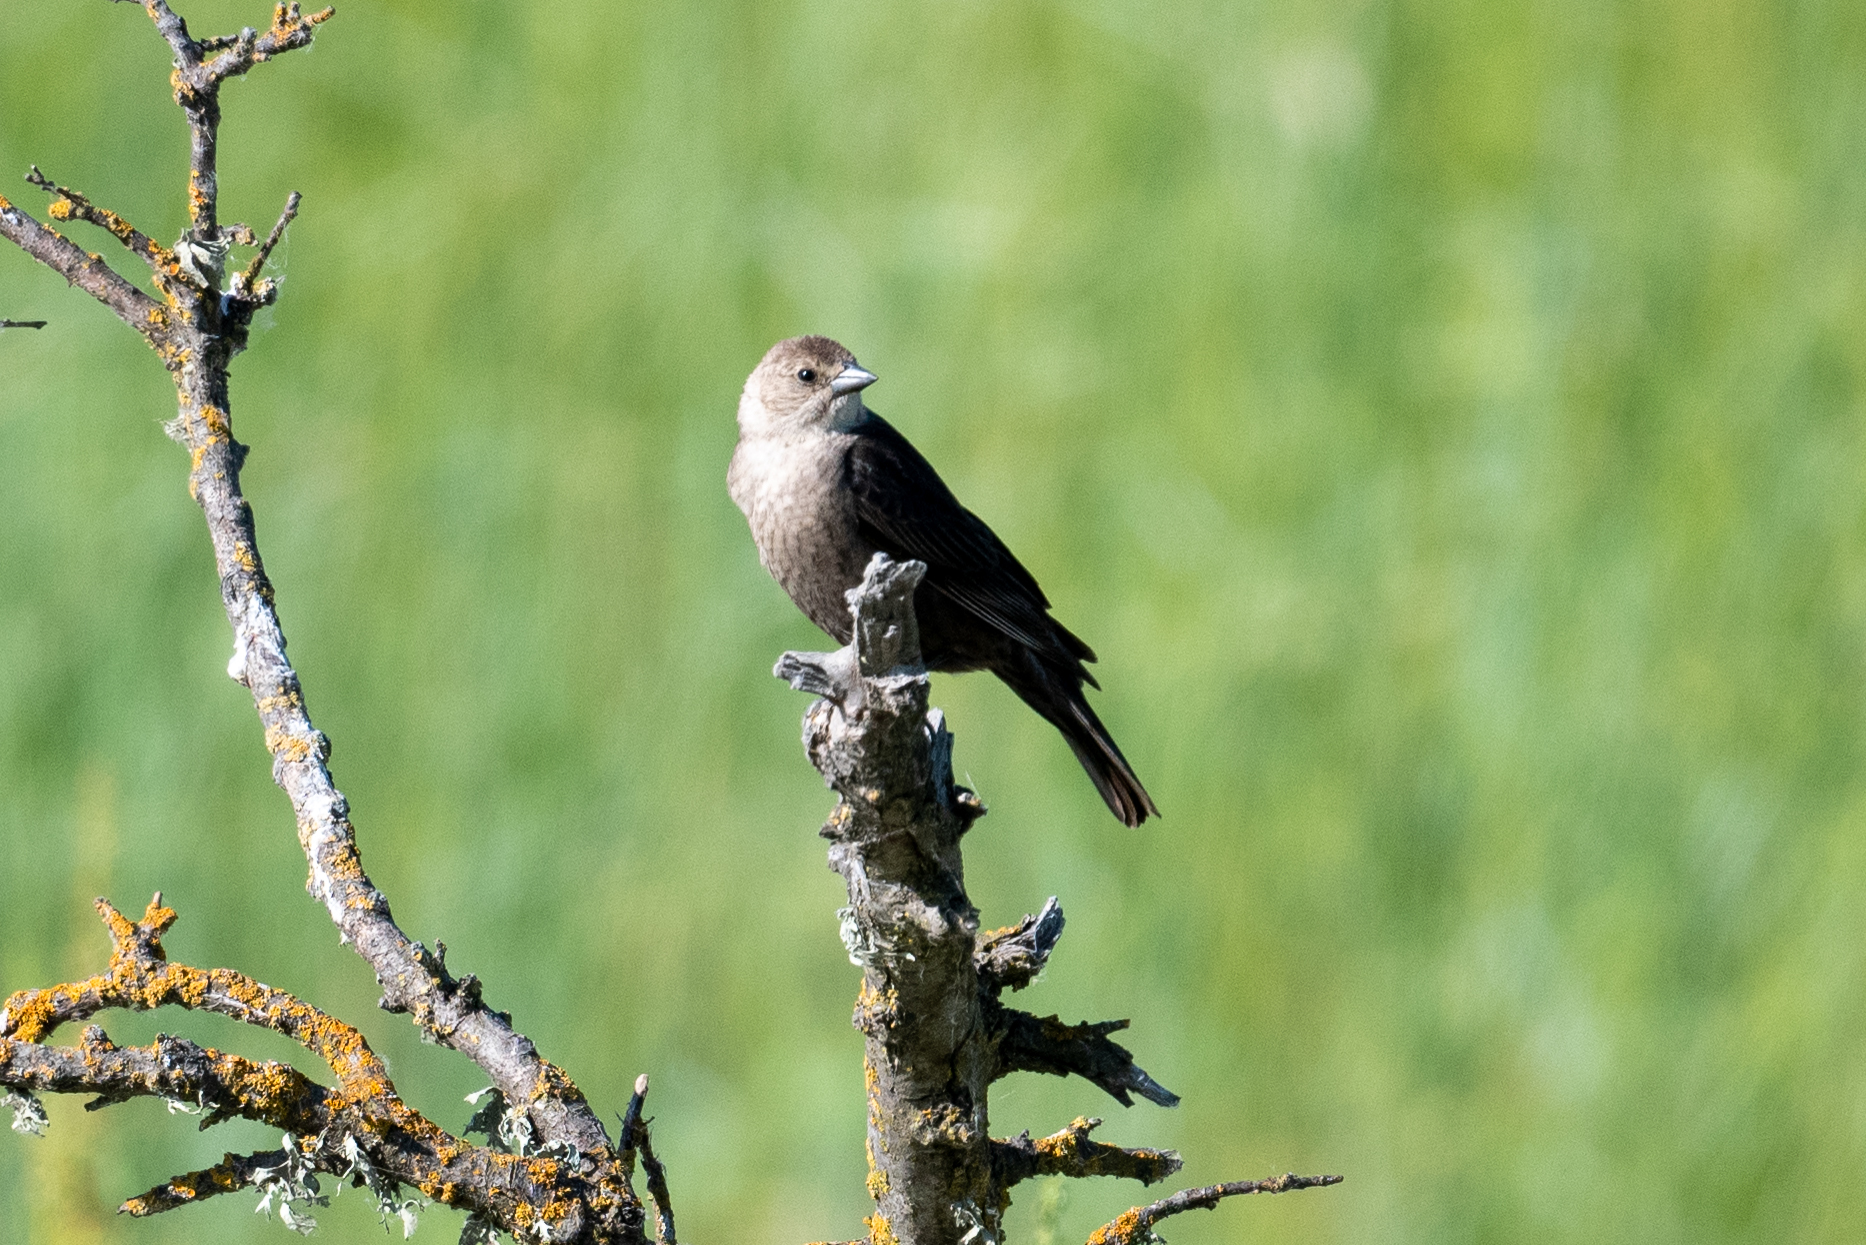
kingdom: Animalia
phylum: Chordata
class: Aves
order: Passeriformes
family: Icteridae
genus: Molothrus
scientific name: Molothrus ater
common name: Brown-headed cowbird
